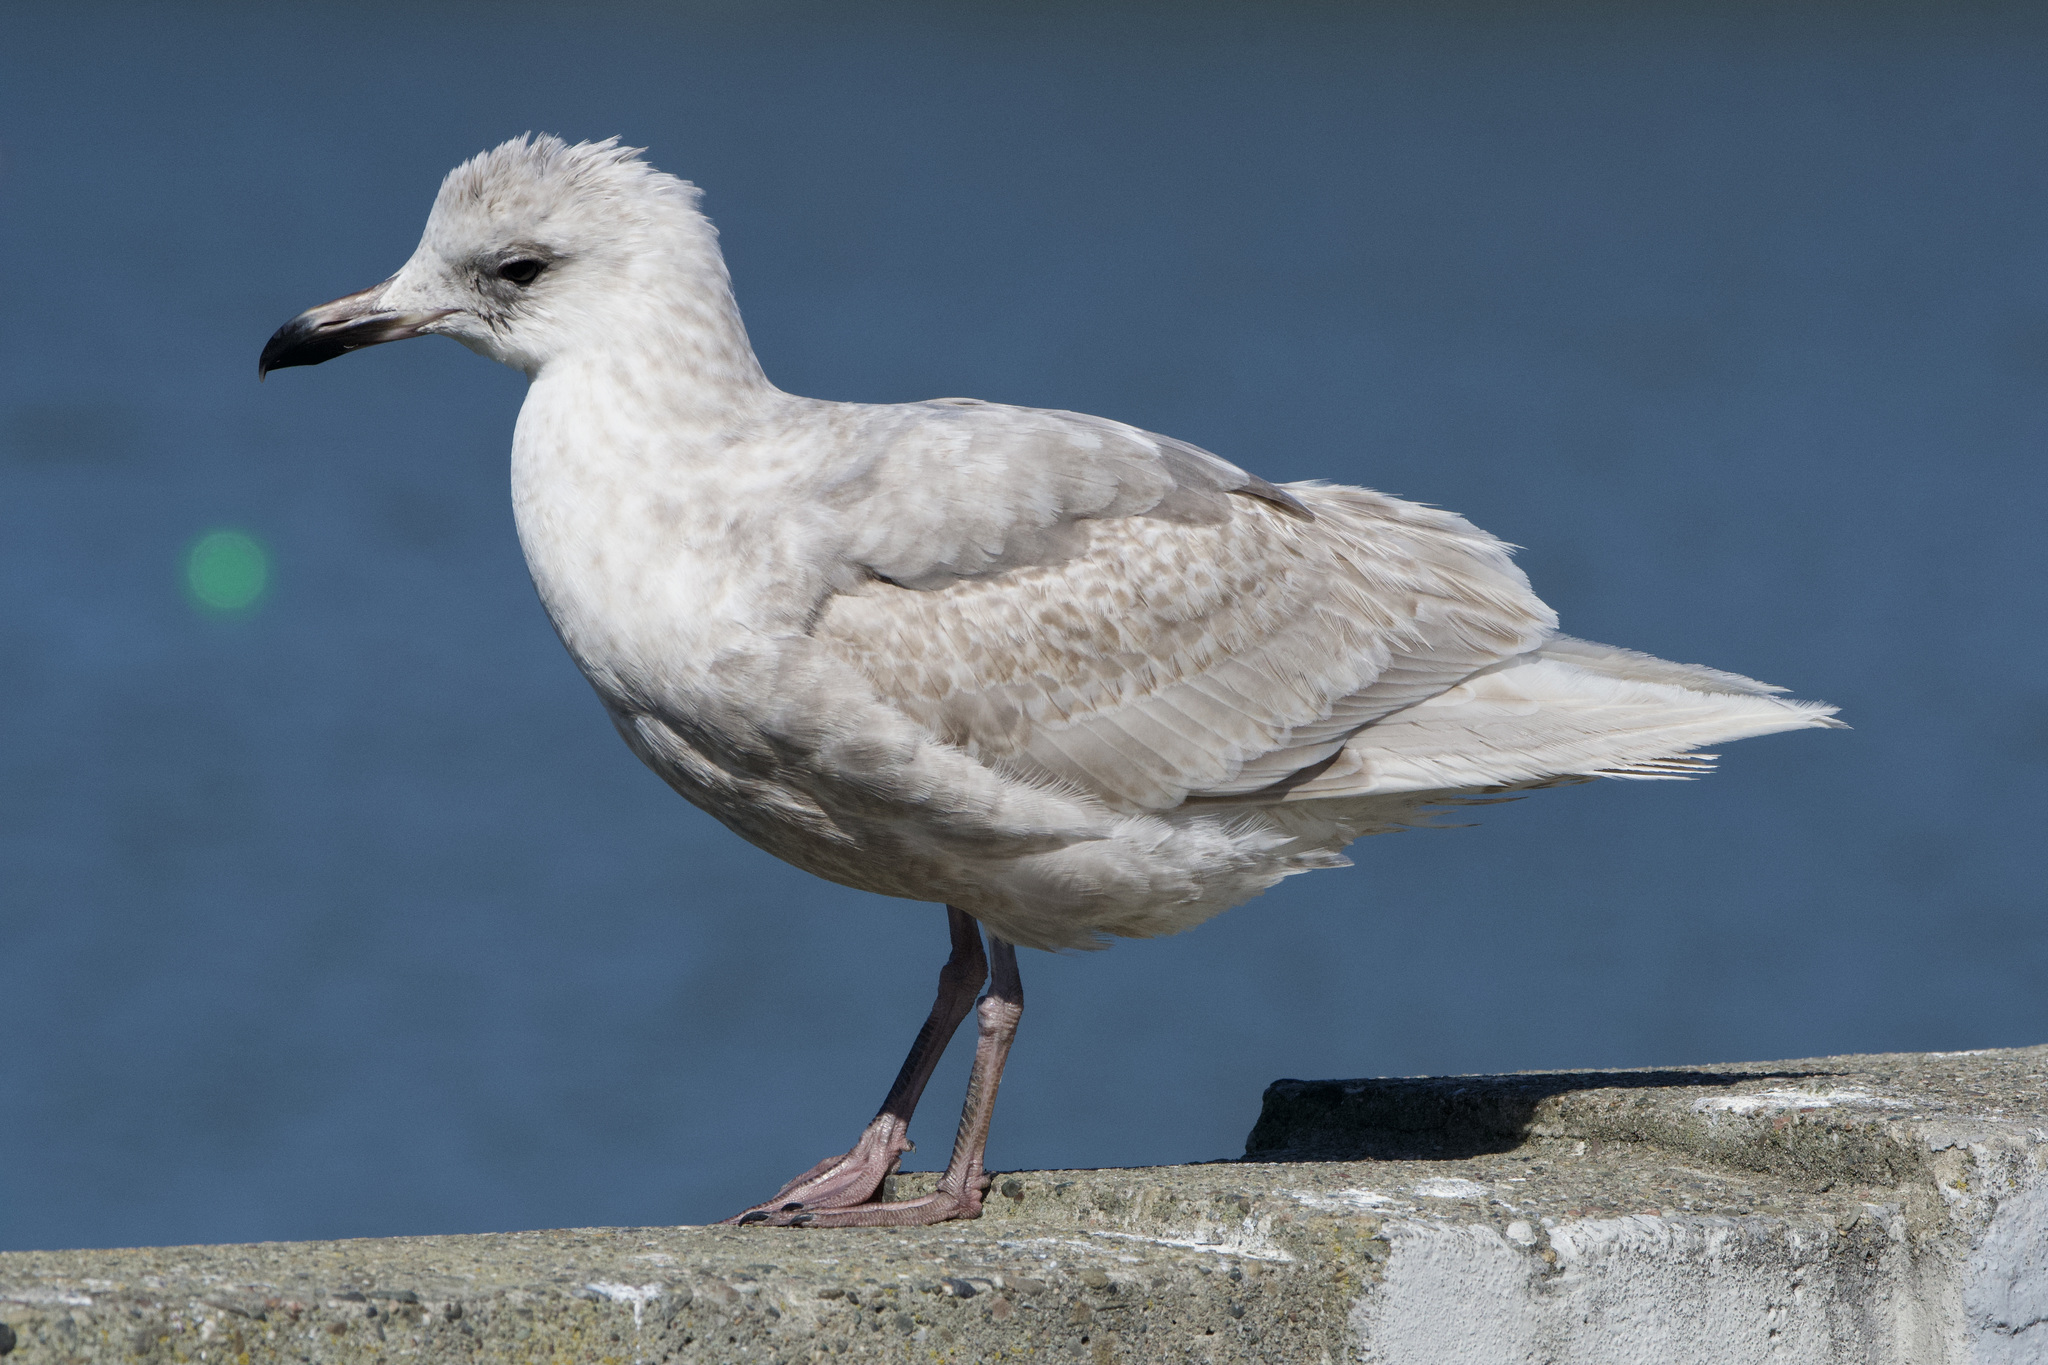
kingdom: Animalia
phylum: Chordata
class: Aves
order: Charadriiformes
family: Laridae
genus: Larus
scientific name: Larus glaucescens
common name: Glaucous-winged gull
